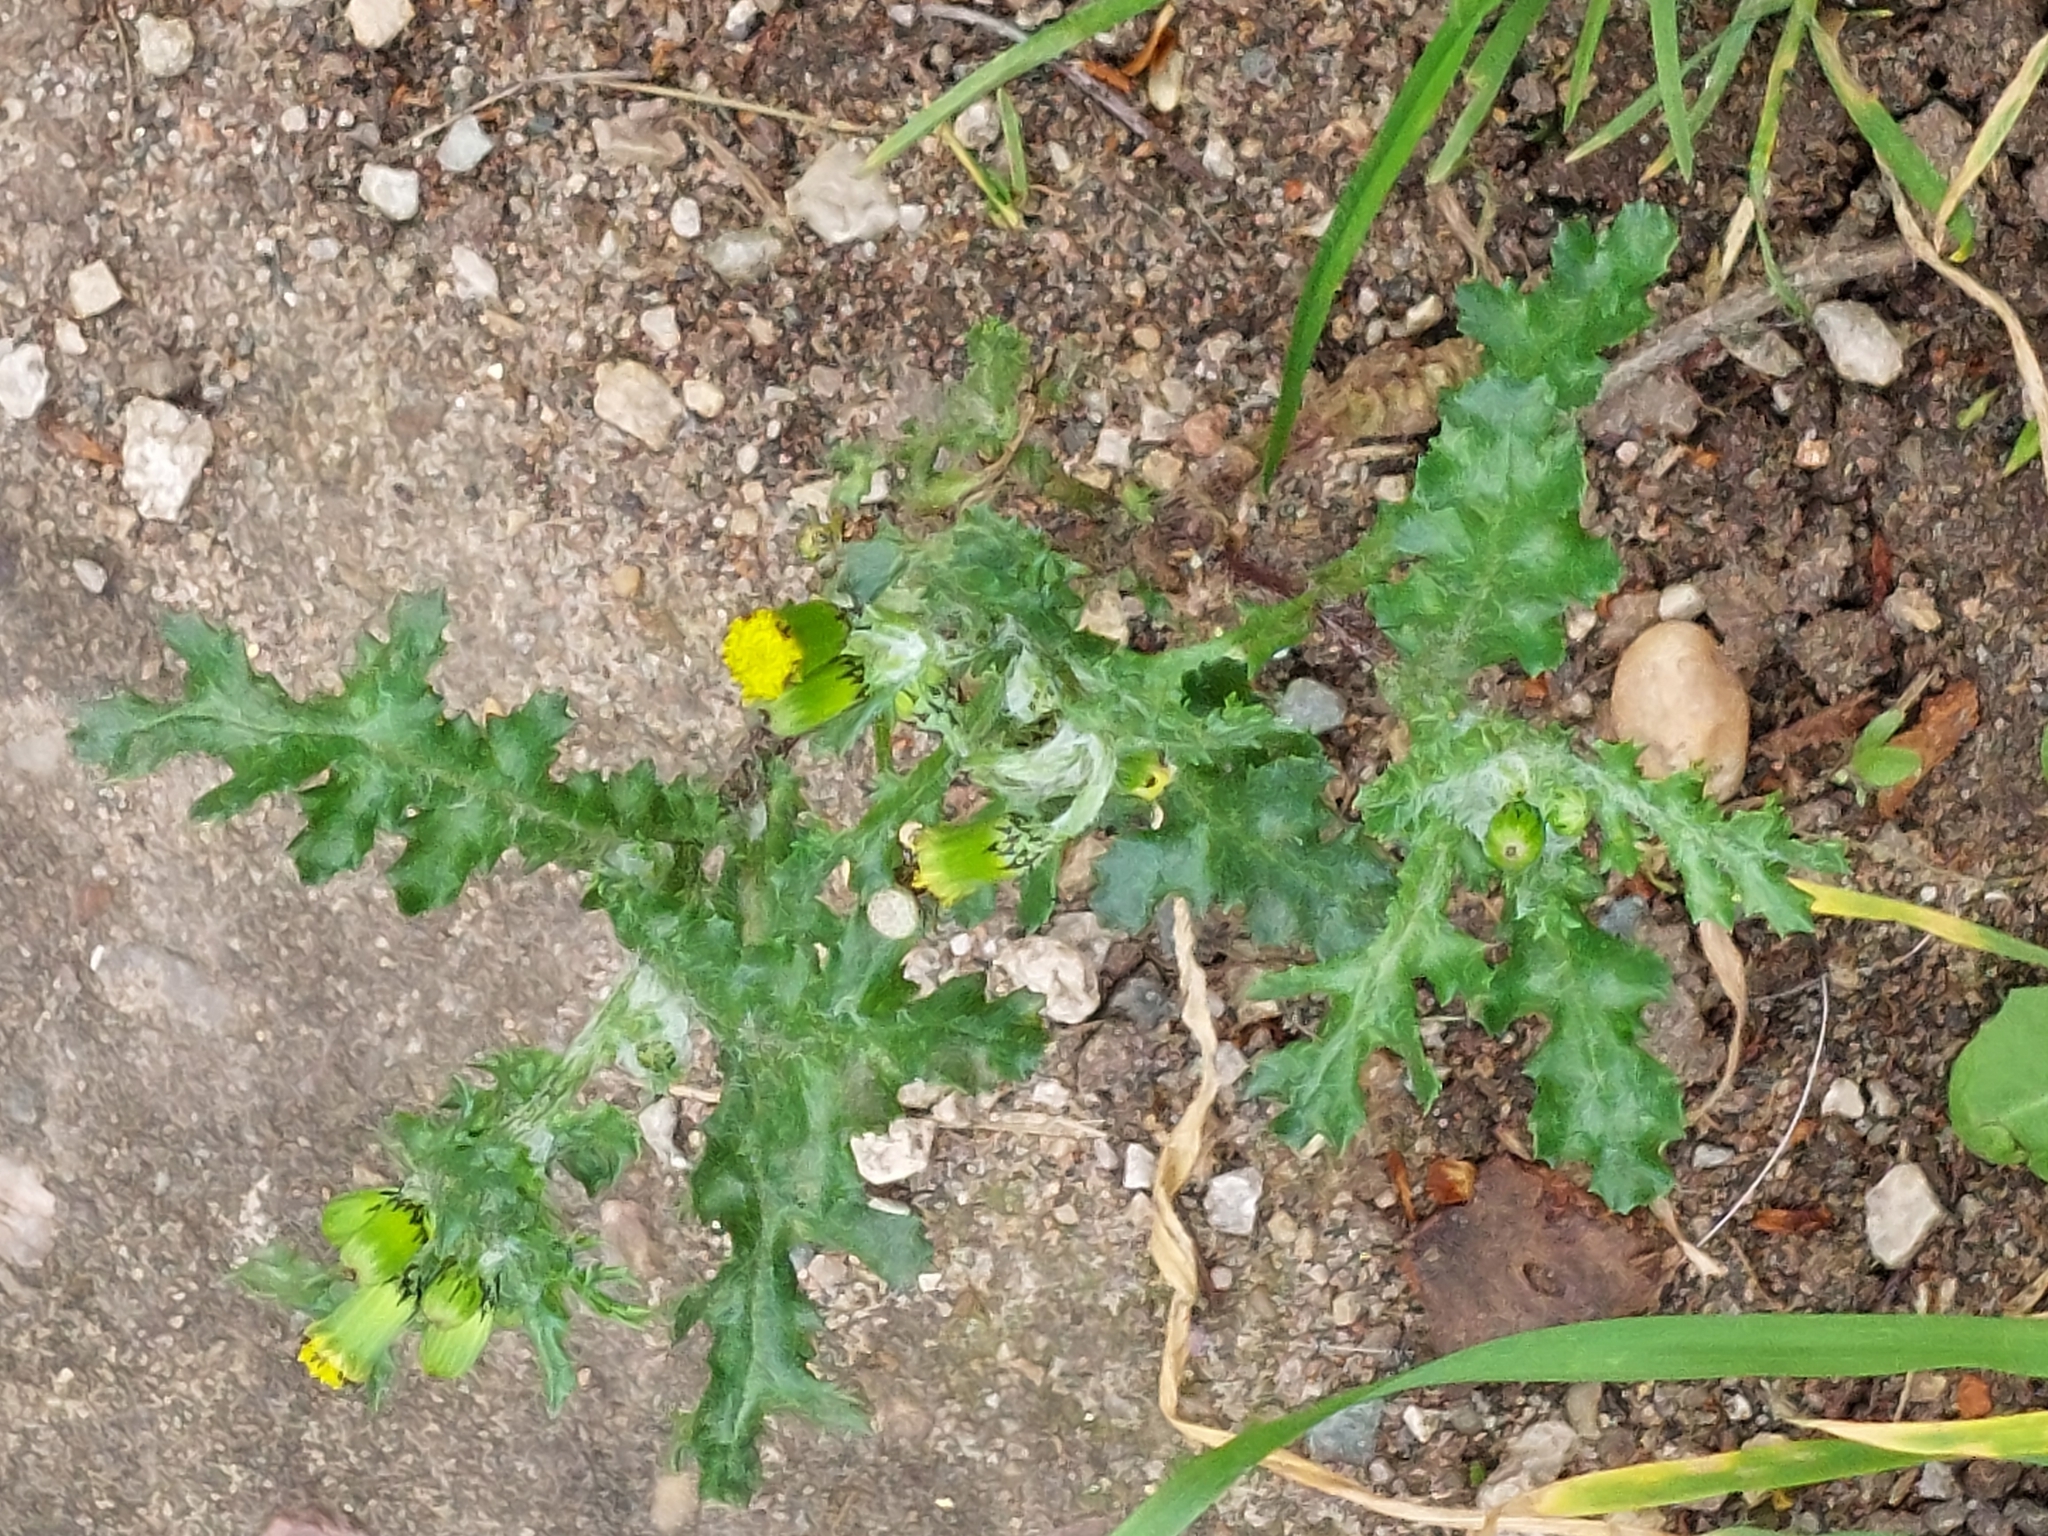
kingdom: Plantae
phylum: Tracheophyta
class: Magnoliopsida
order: Asterales
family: Asteraceae
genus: Senecio
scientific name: Senecio vulgaris
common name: Old-man-in-the-spring
